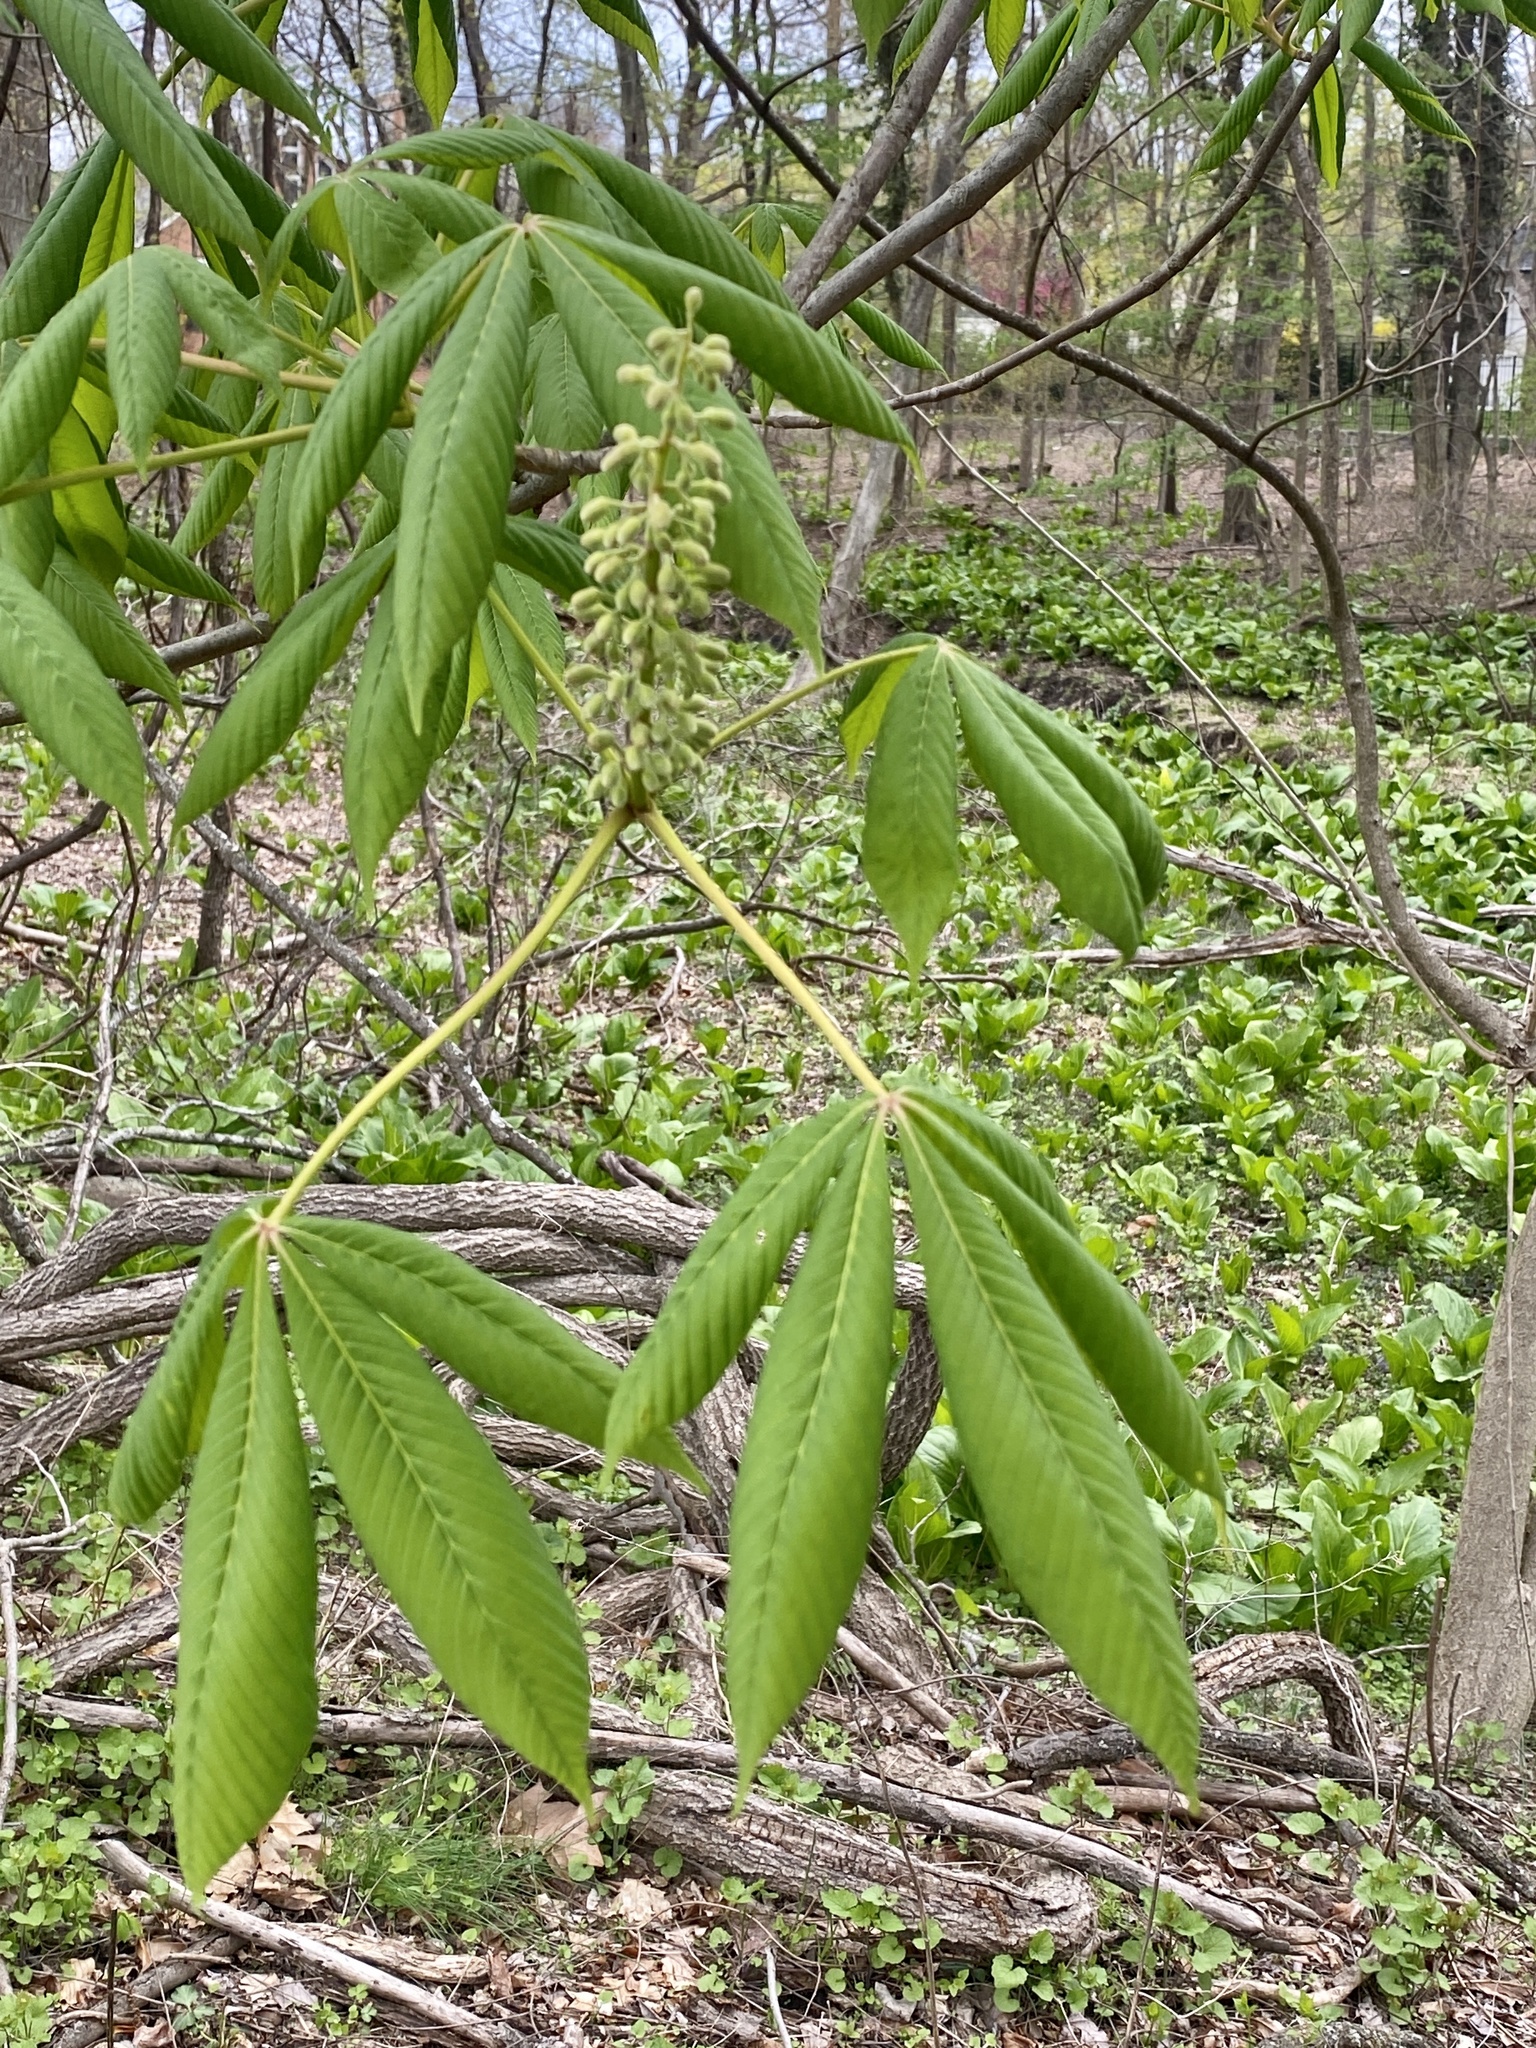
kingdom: Plantae
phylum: Tracheophyta
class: Magnoliopsida
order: Sapindales
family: Sapindaceae
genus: Aesculus
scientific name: Aesculus flava
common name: Yellow buckeye
